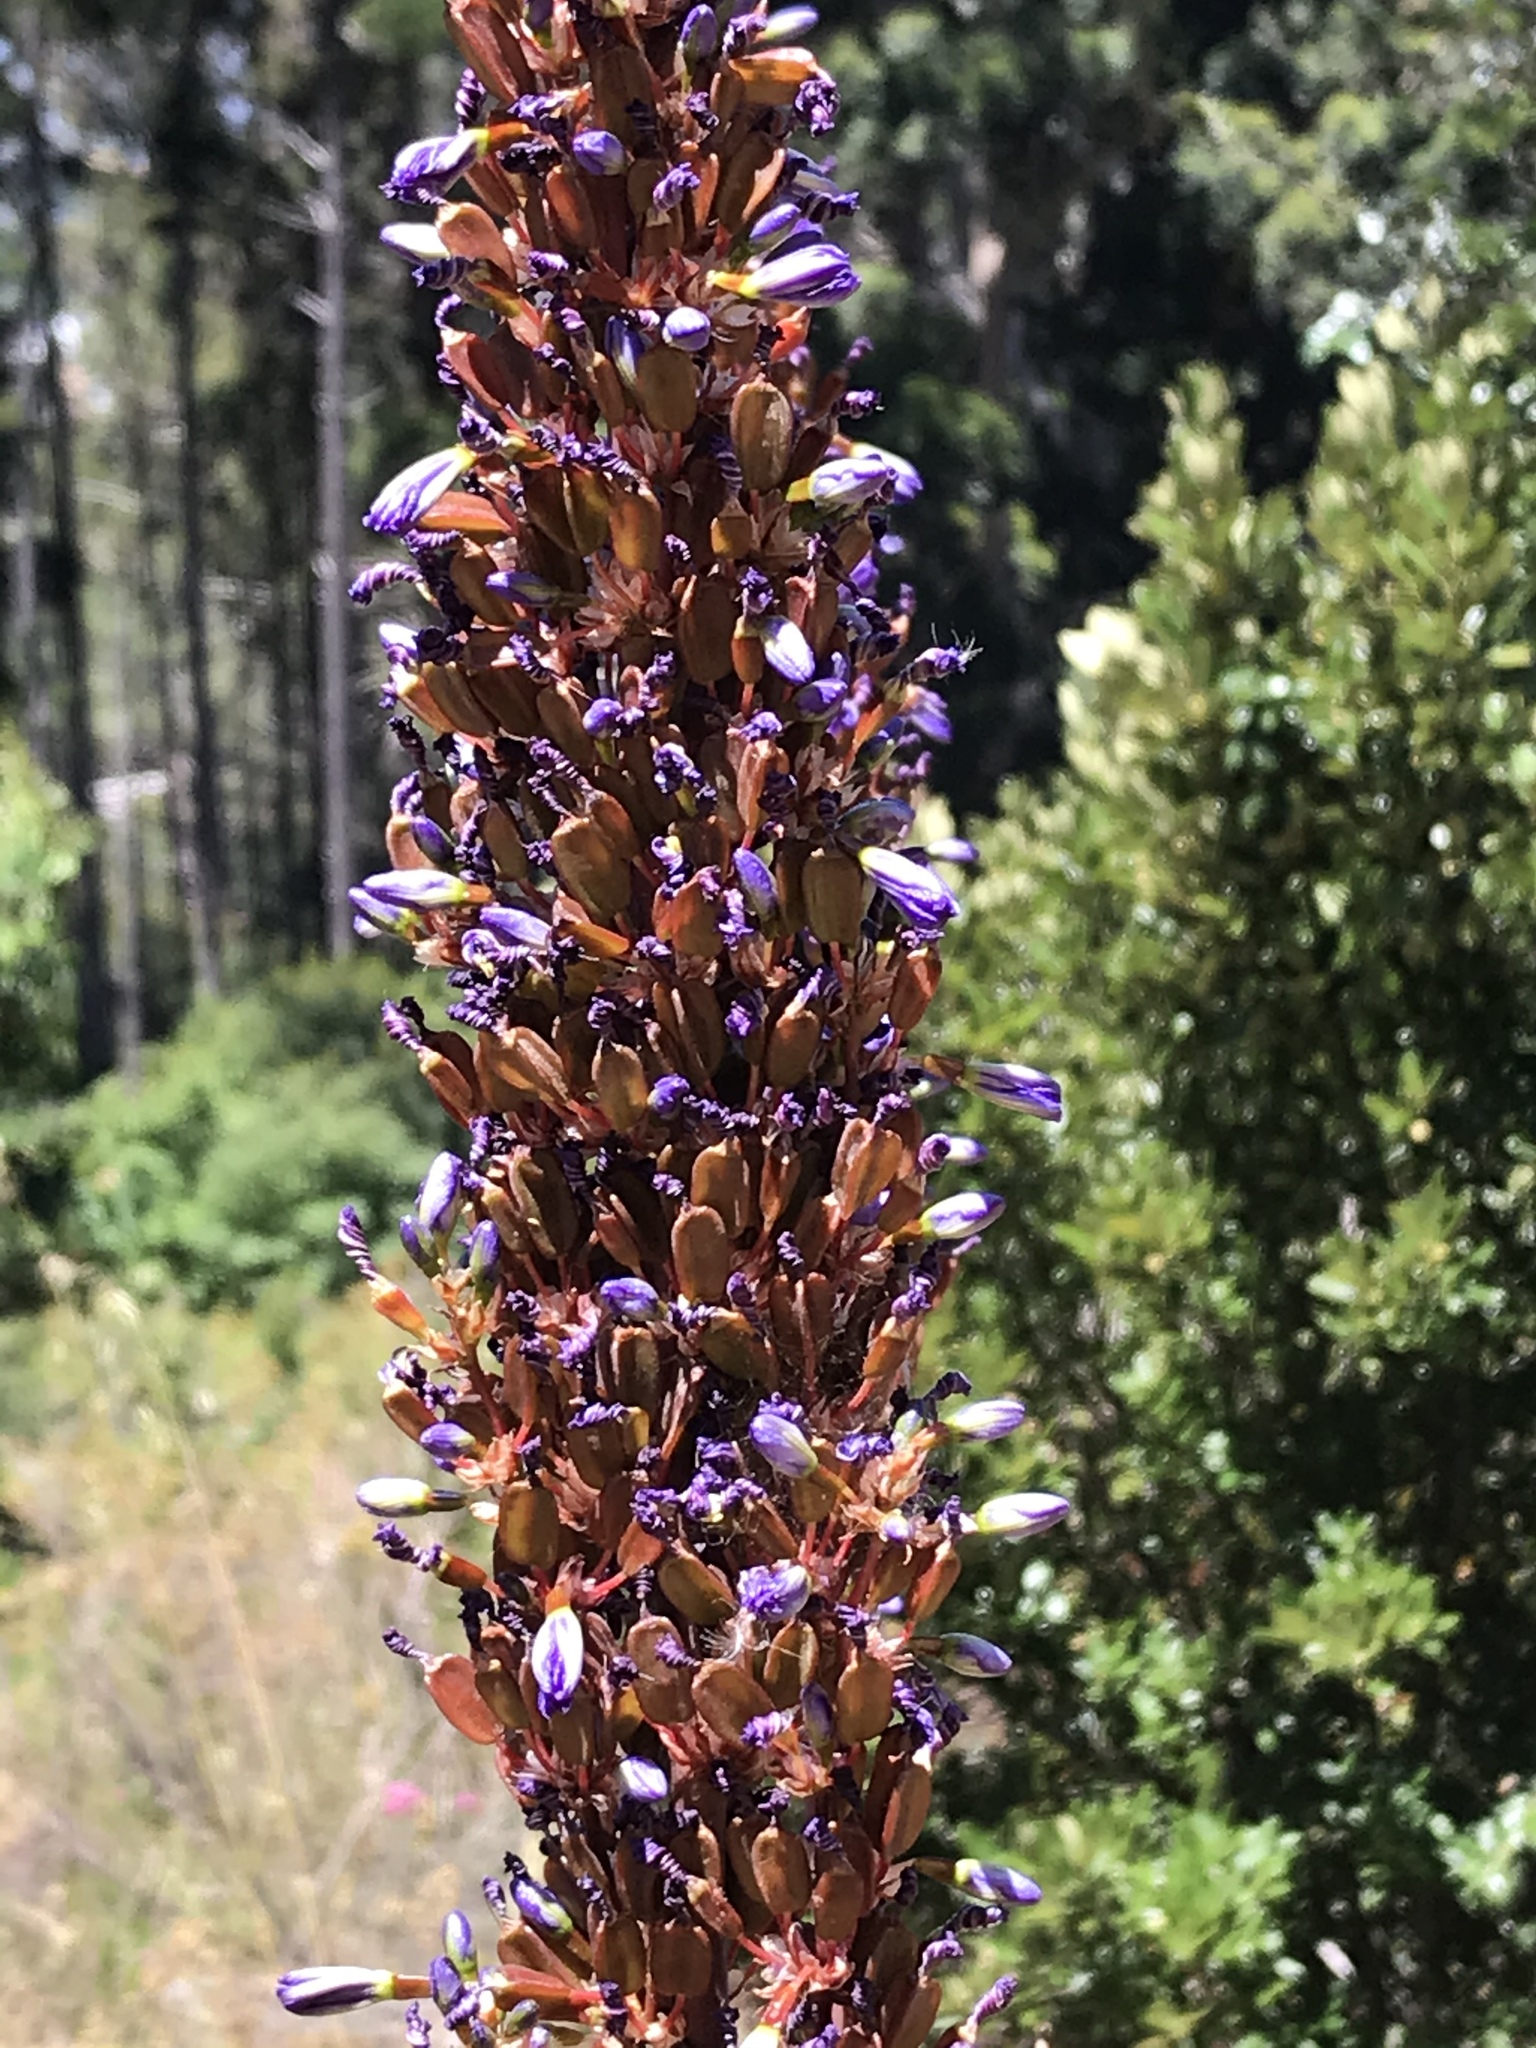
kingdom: Plantae
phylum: Tracheophyta
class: Liliopsida
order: Asparagales
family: Iridaceae
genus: Aristea
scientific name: Aristea capitata
